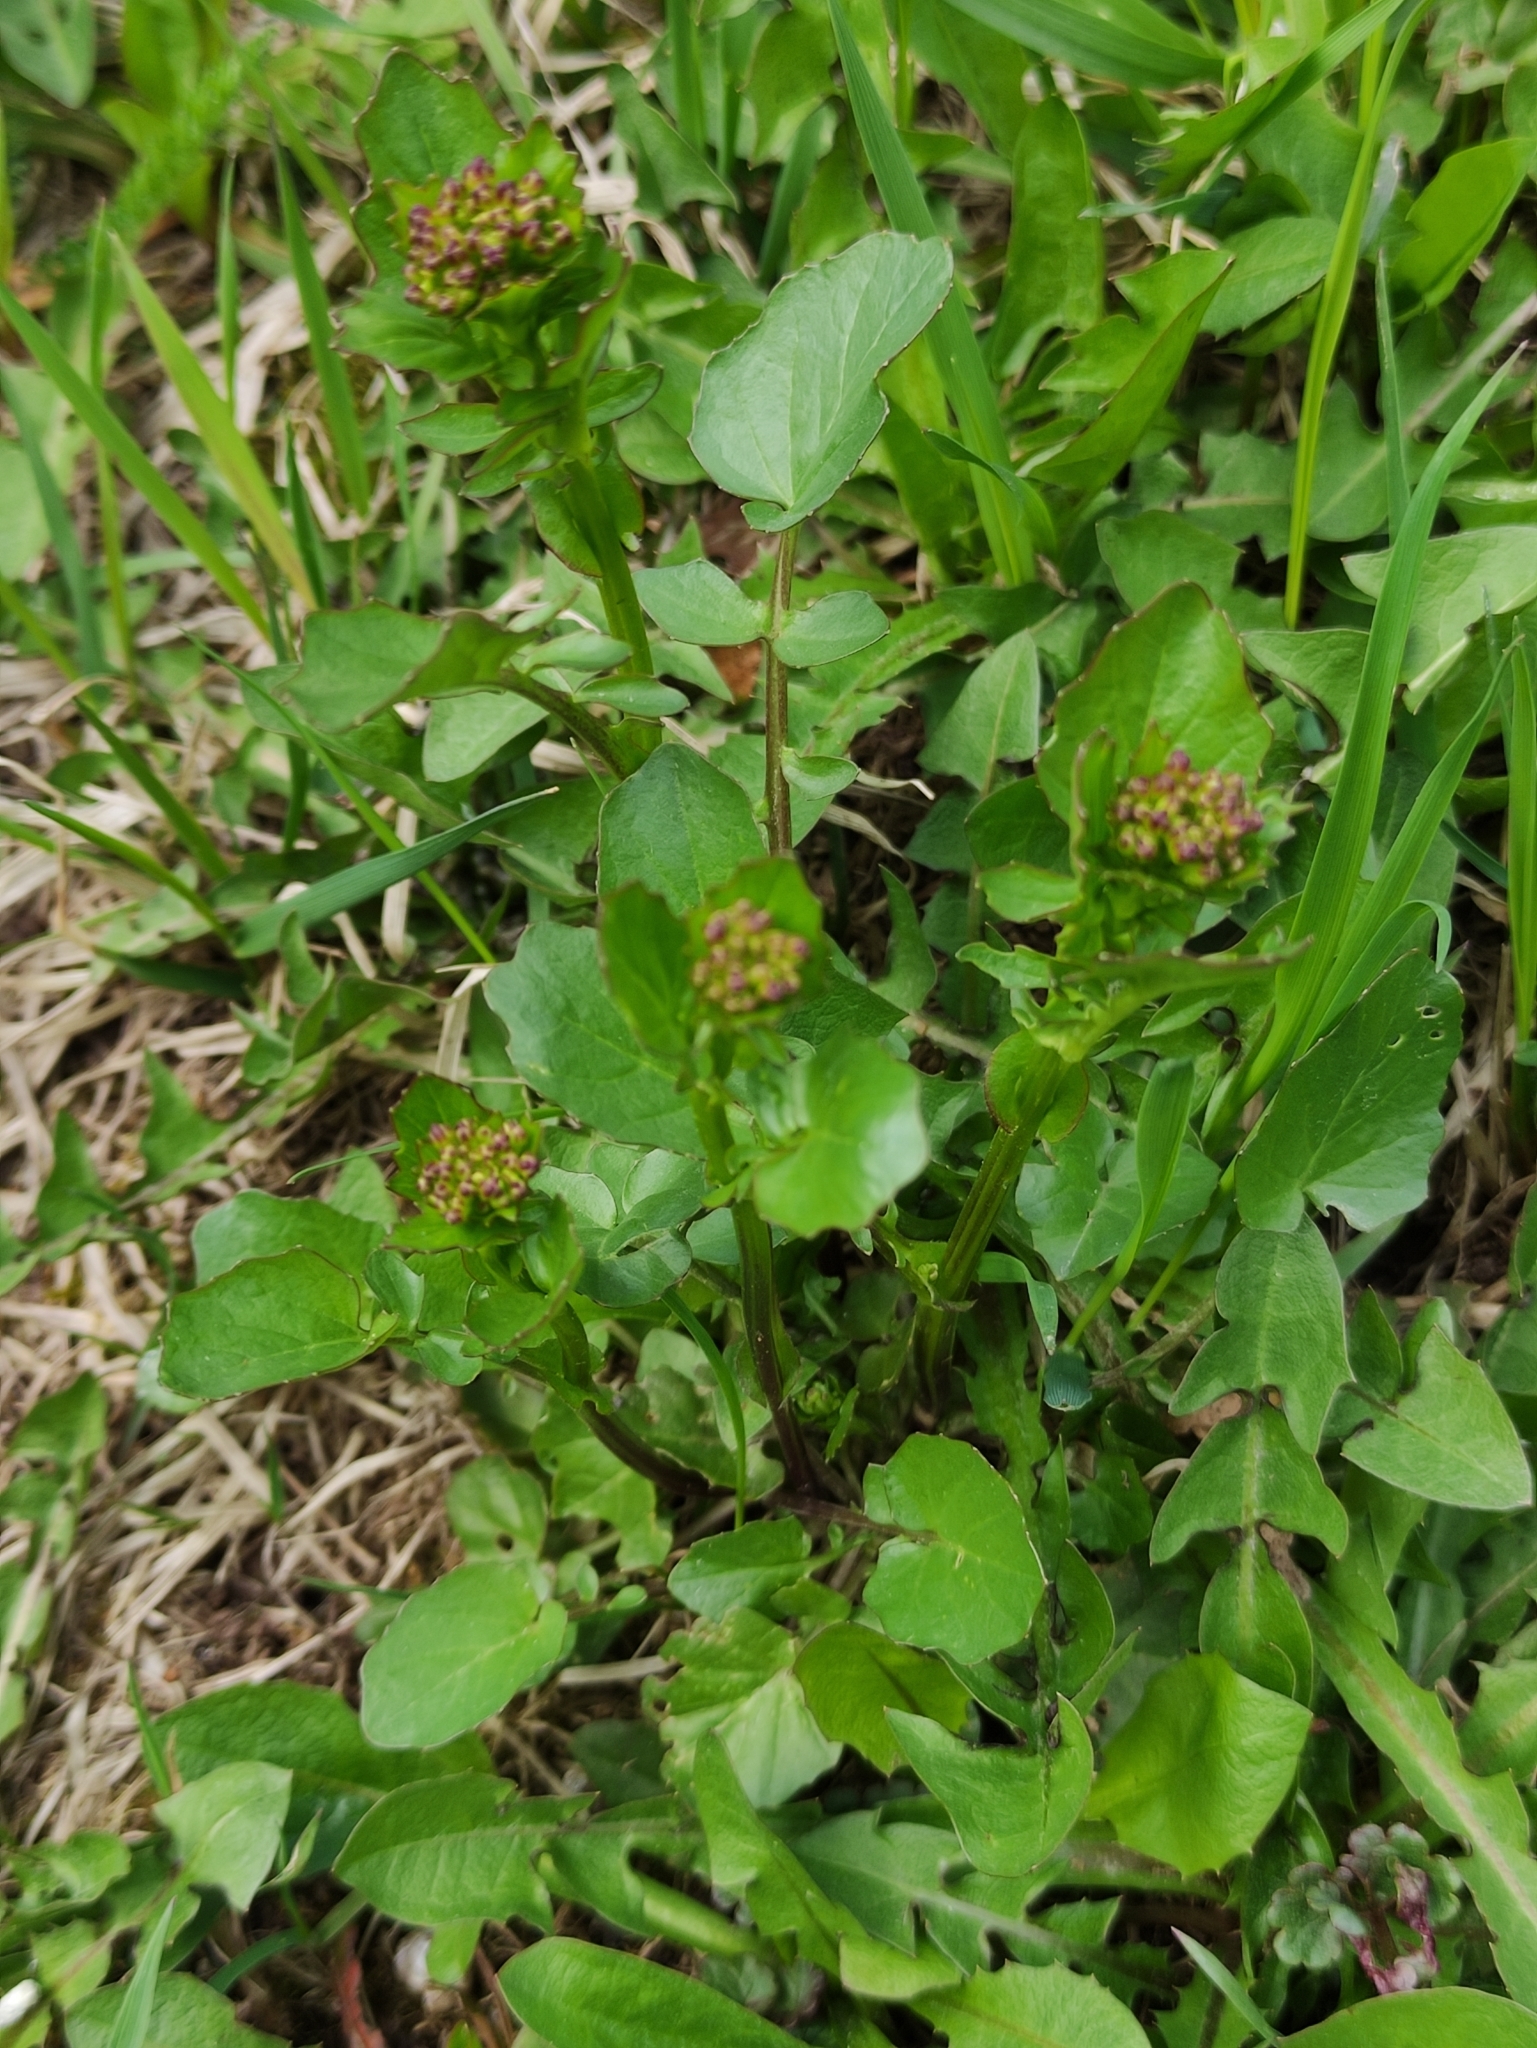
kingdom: Plantae
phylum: Tracheophyta
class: Magnoliopsida
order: Brassicales
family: Brassicaceae
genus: Barbarea
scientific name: Barbarea vulgaris
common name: Cressy-greens
